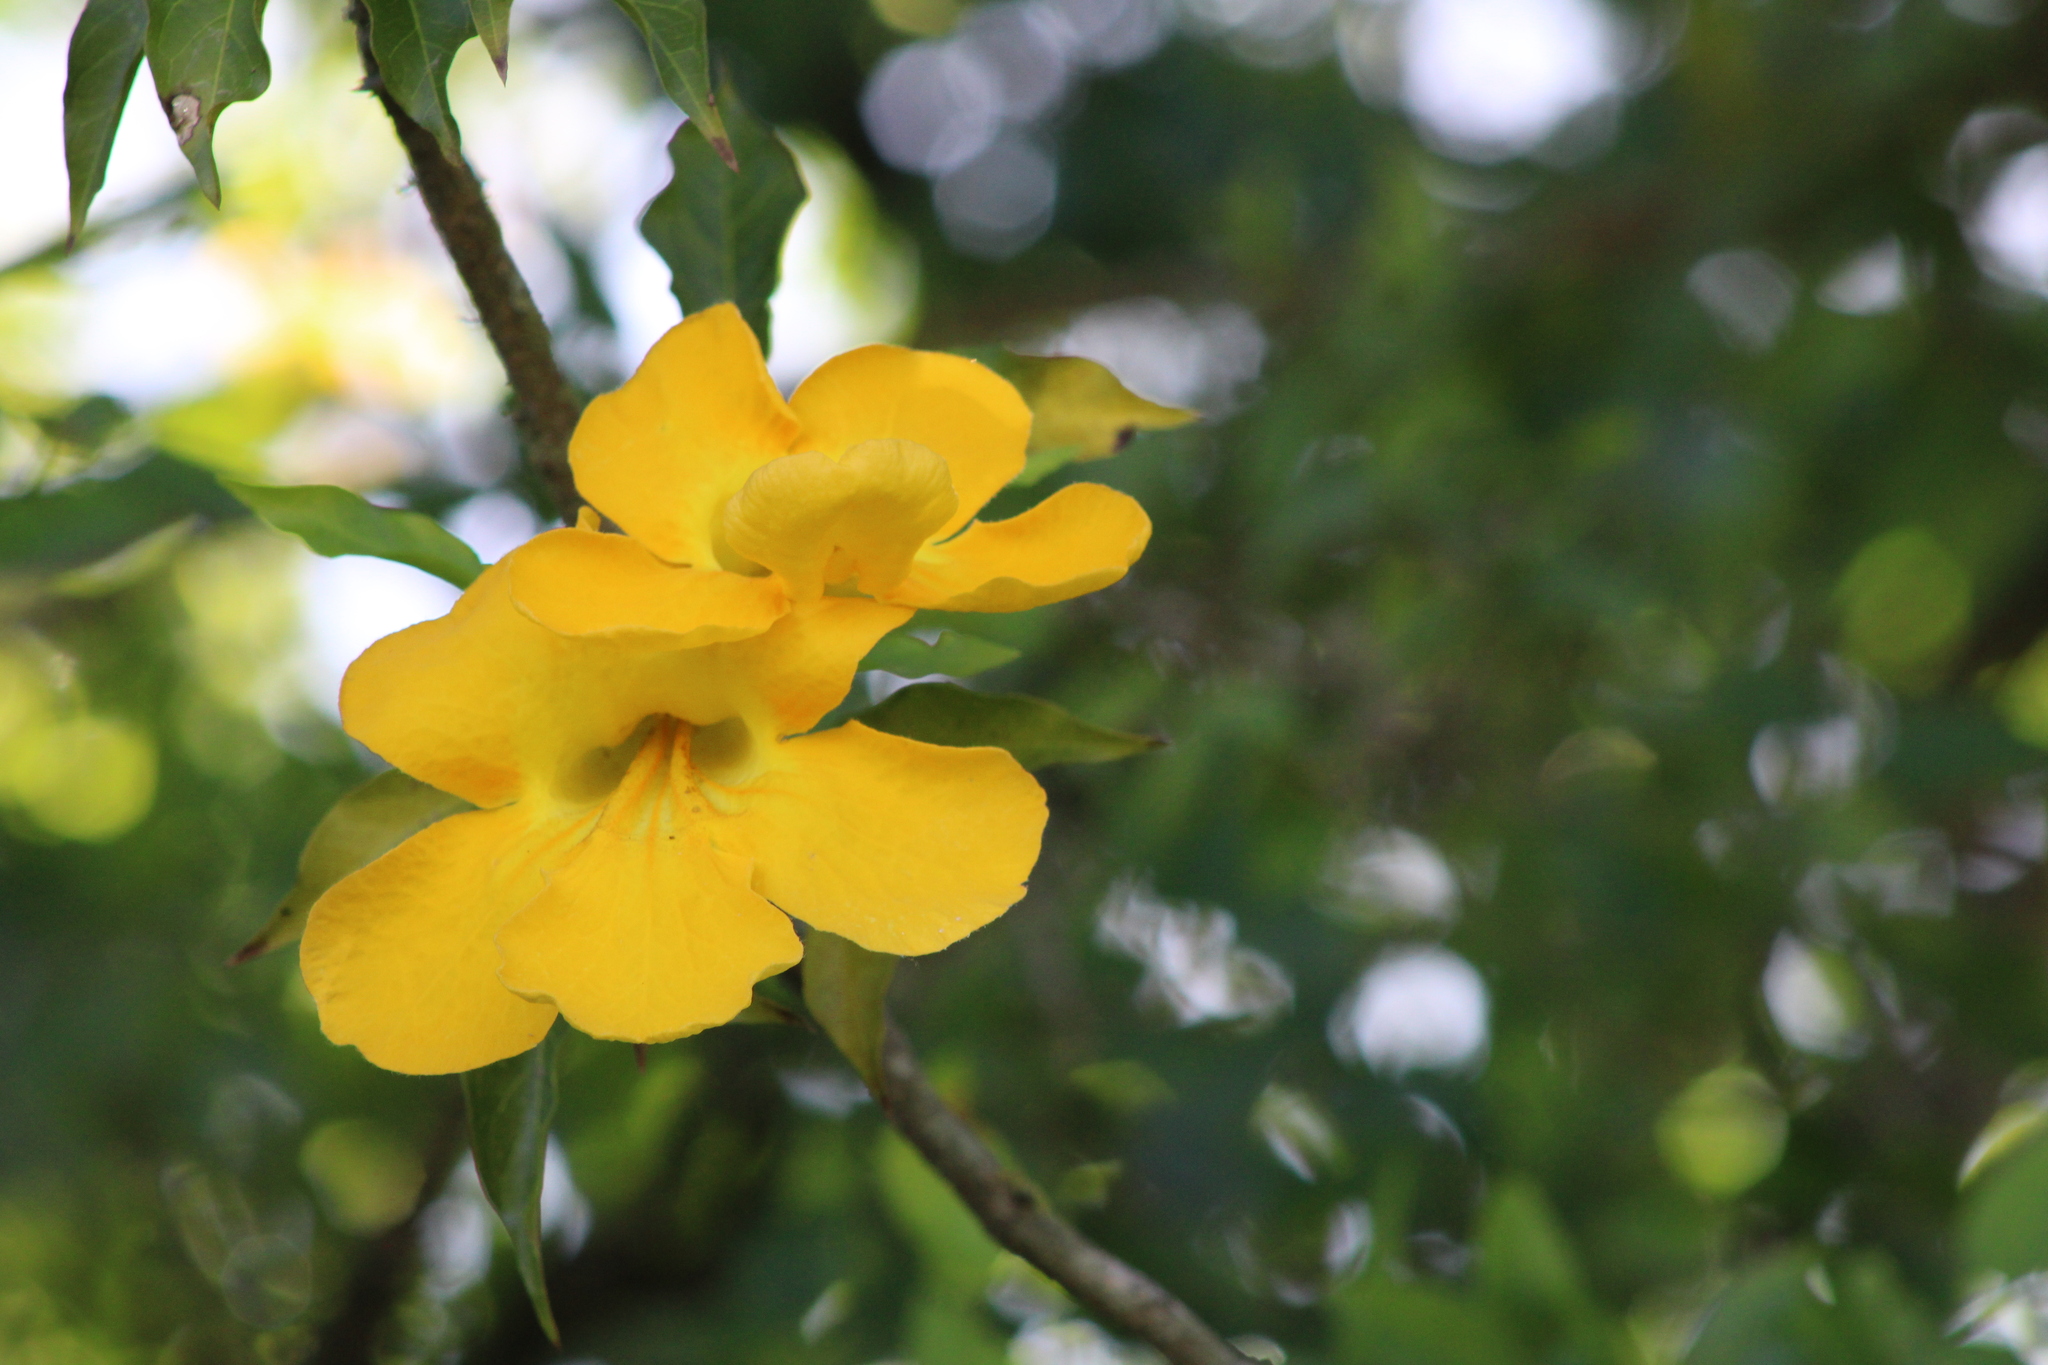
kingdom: Plantae
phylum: Tracheophyta
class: Magnoliopsida
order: Lamiales
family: Bignoniaceae
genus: Dolichandra
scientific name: Dolichandra unguis-cati
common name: Catclaw vine
